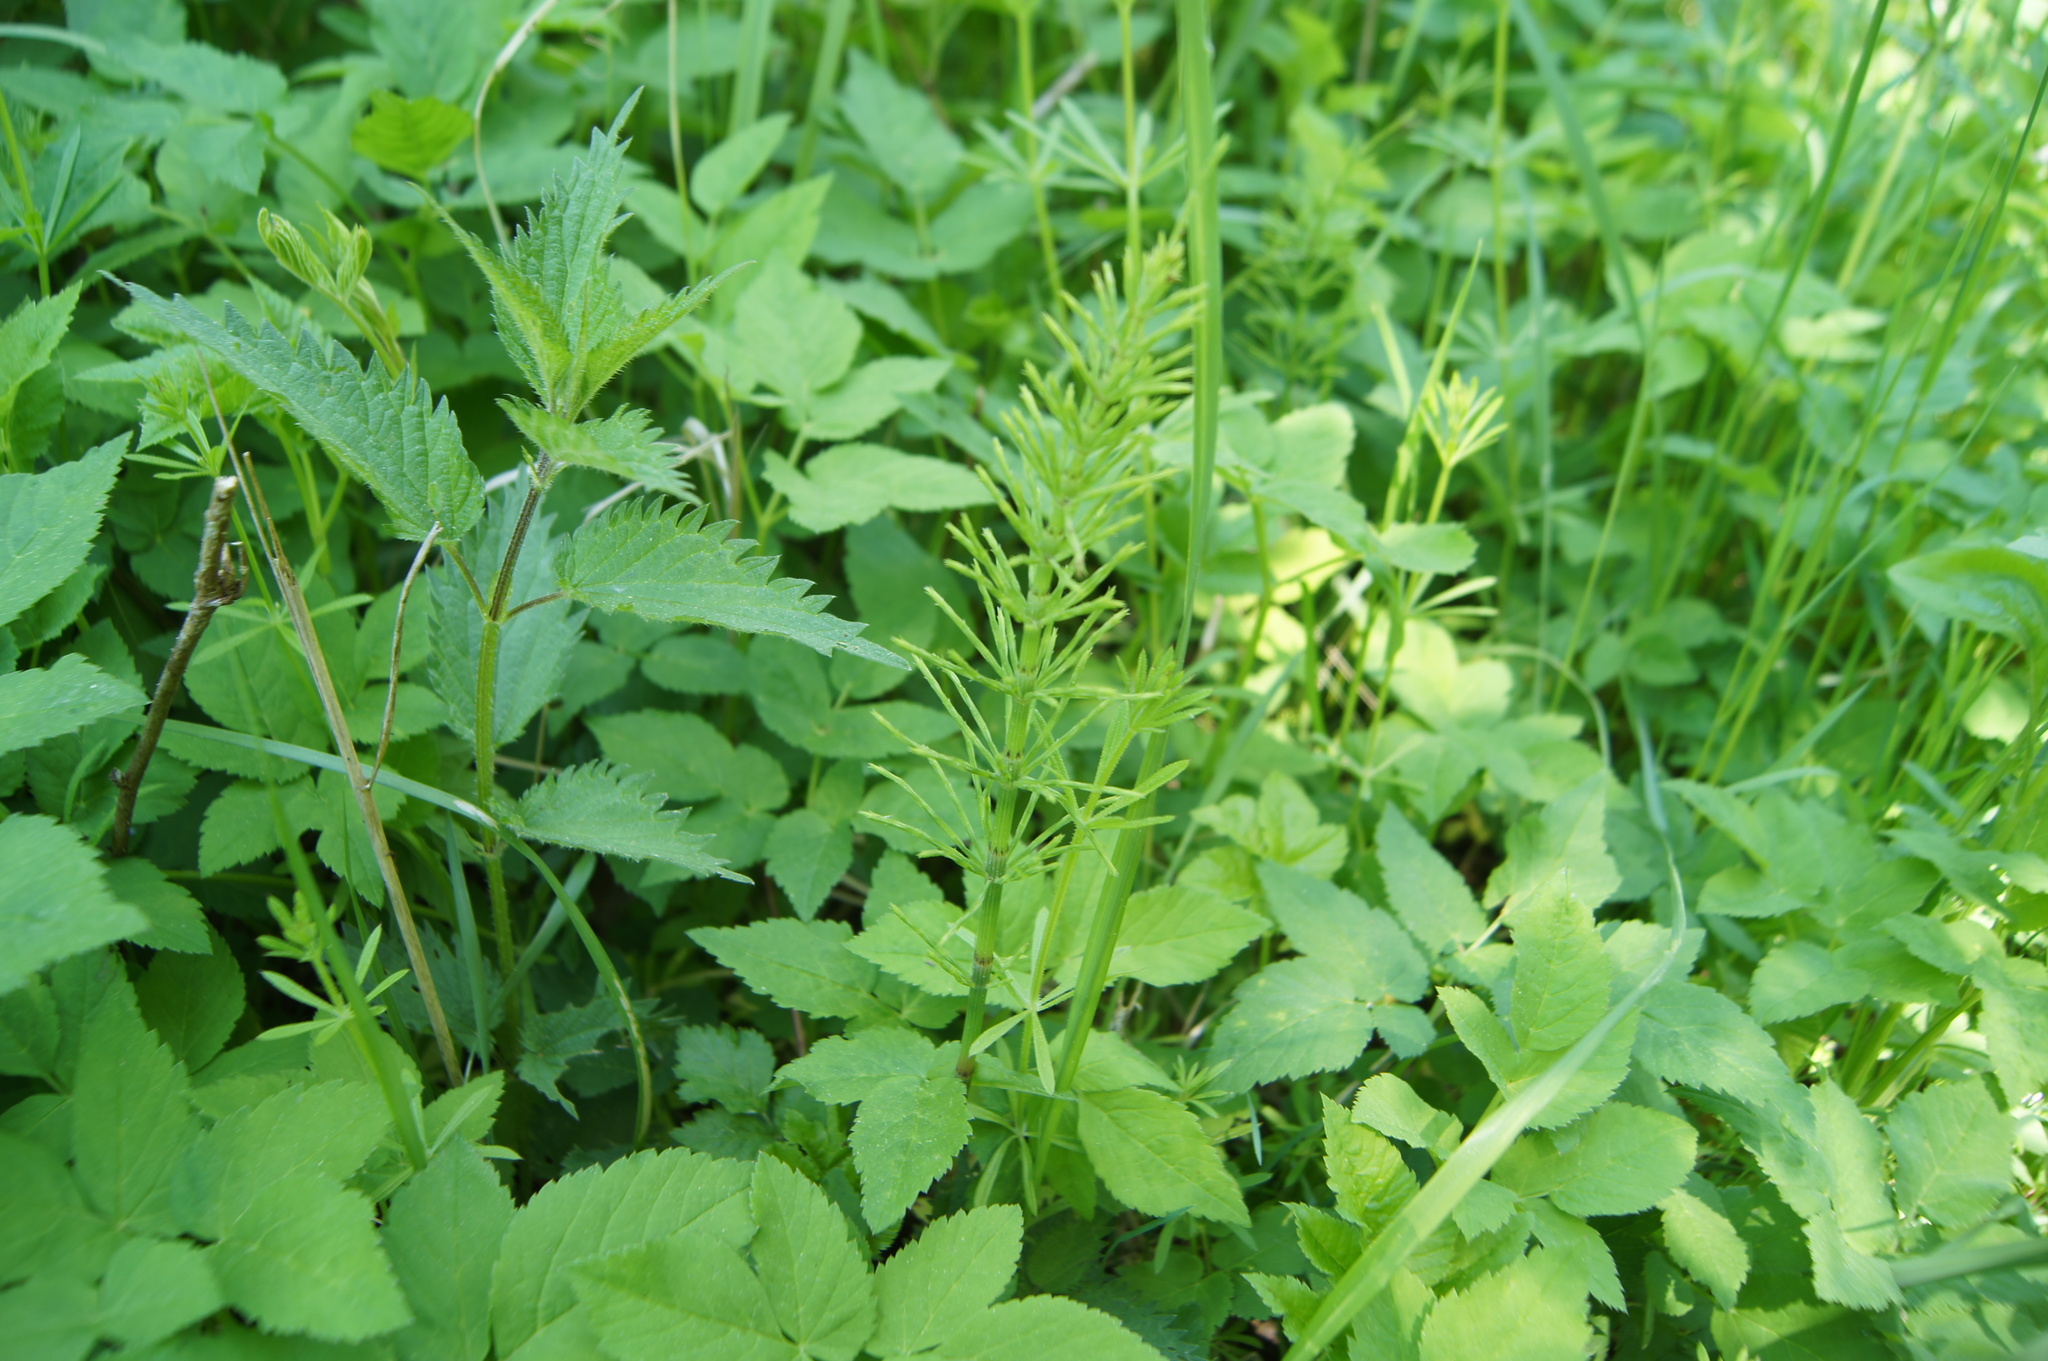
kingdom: Plantae
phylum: Tracheophyta
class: Polypodiopsida
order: Equisetales
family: Equisetaceae
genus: Equisetum
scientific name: Equisetum arvense
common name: Field horsetail
